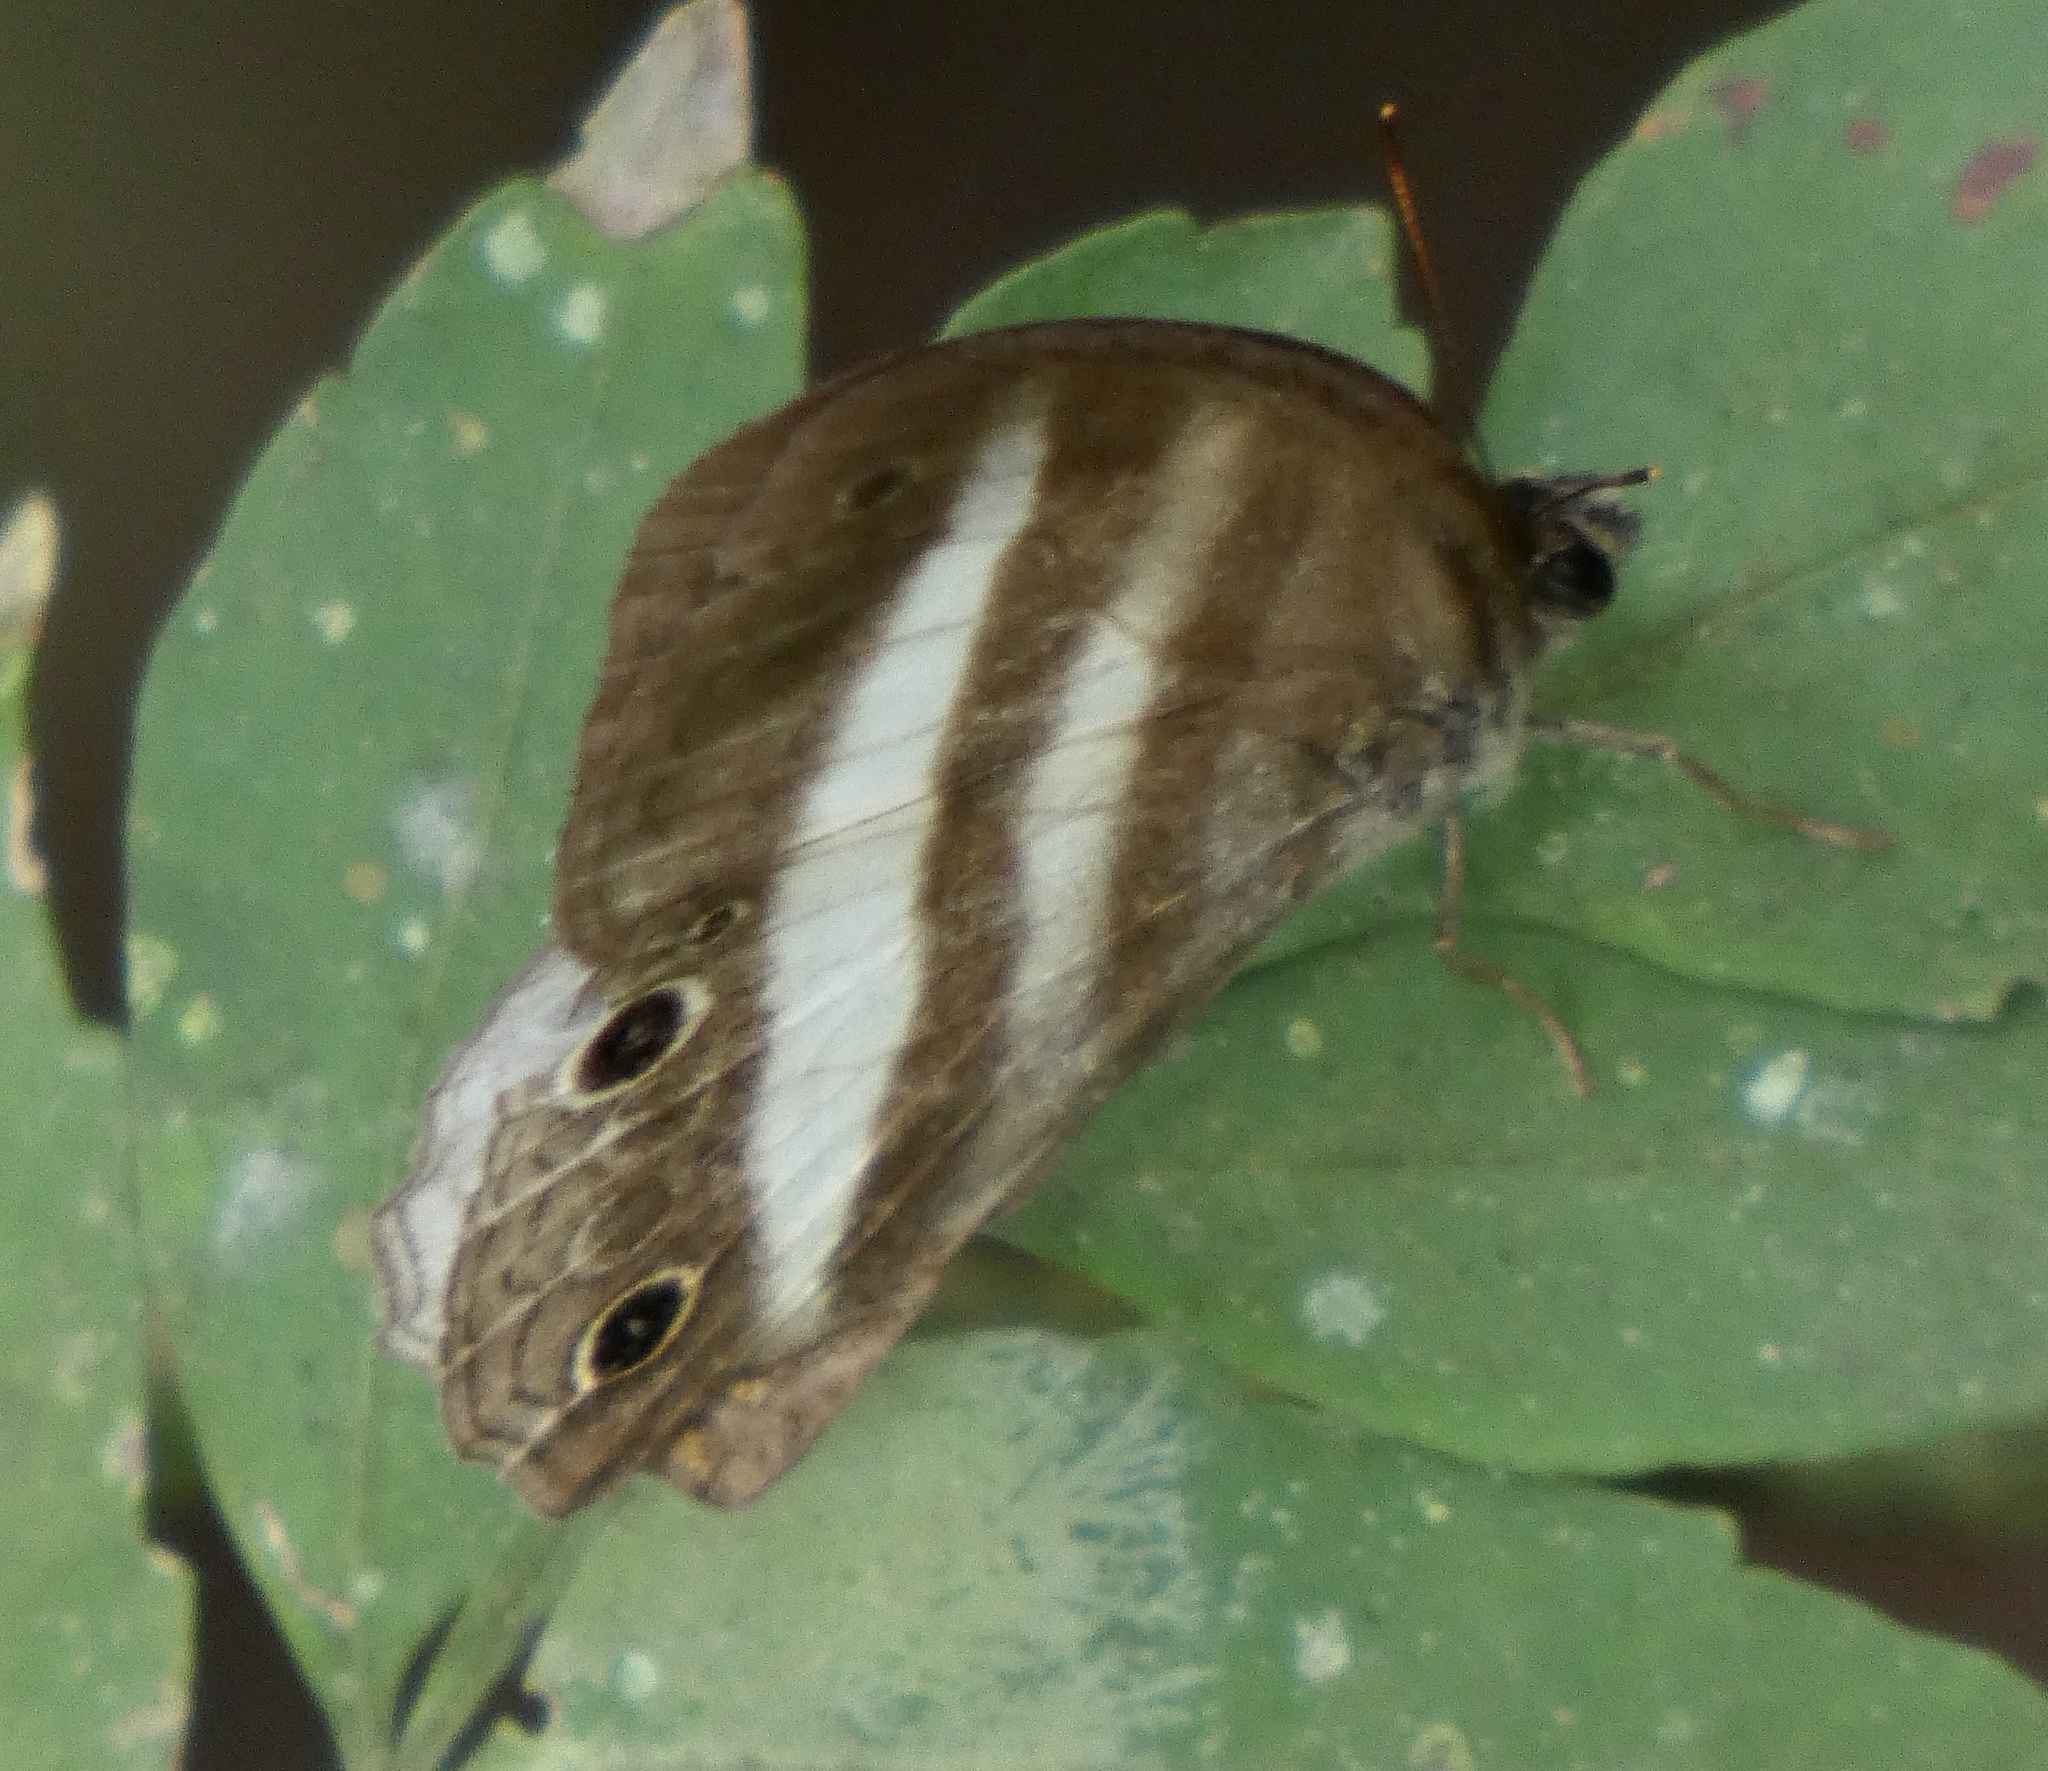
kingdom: Animalia
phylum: Arthropoda
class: Insecta
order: Lepidoptera
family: Nymphalidae
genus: Pareuptychia
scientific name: Pareuptychia hesione
